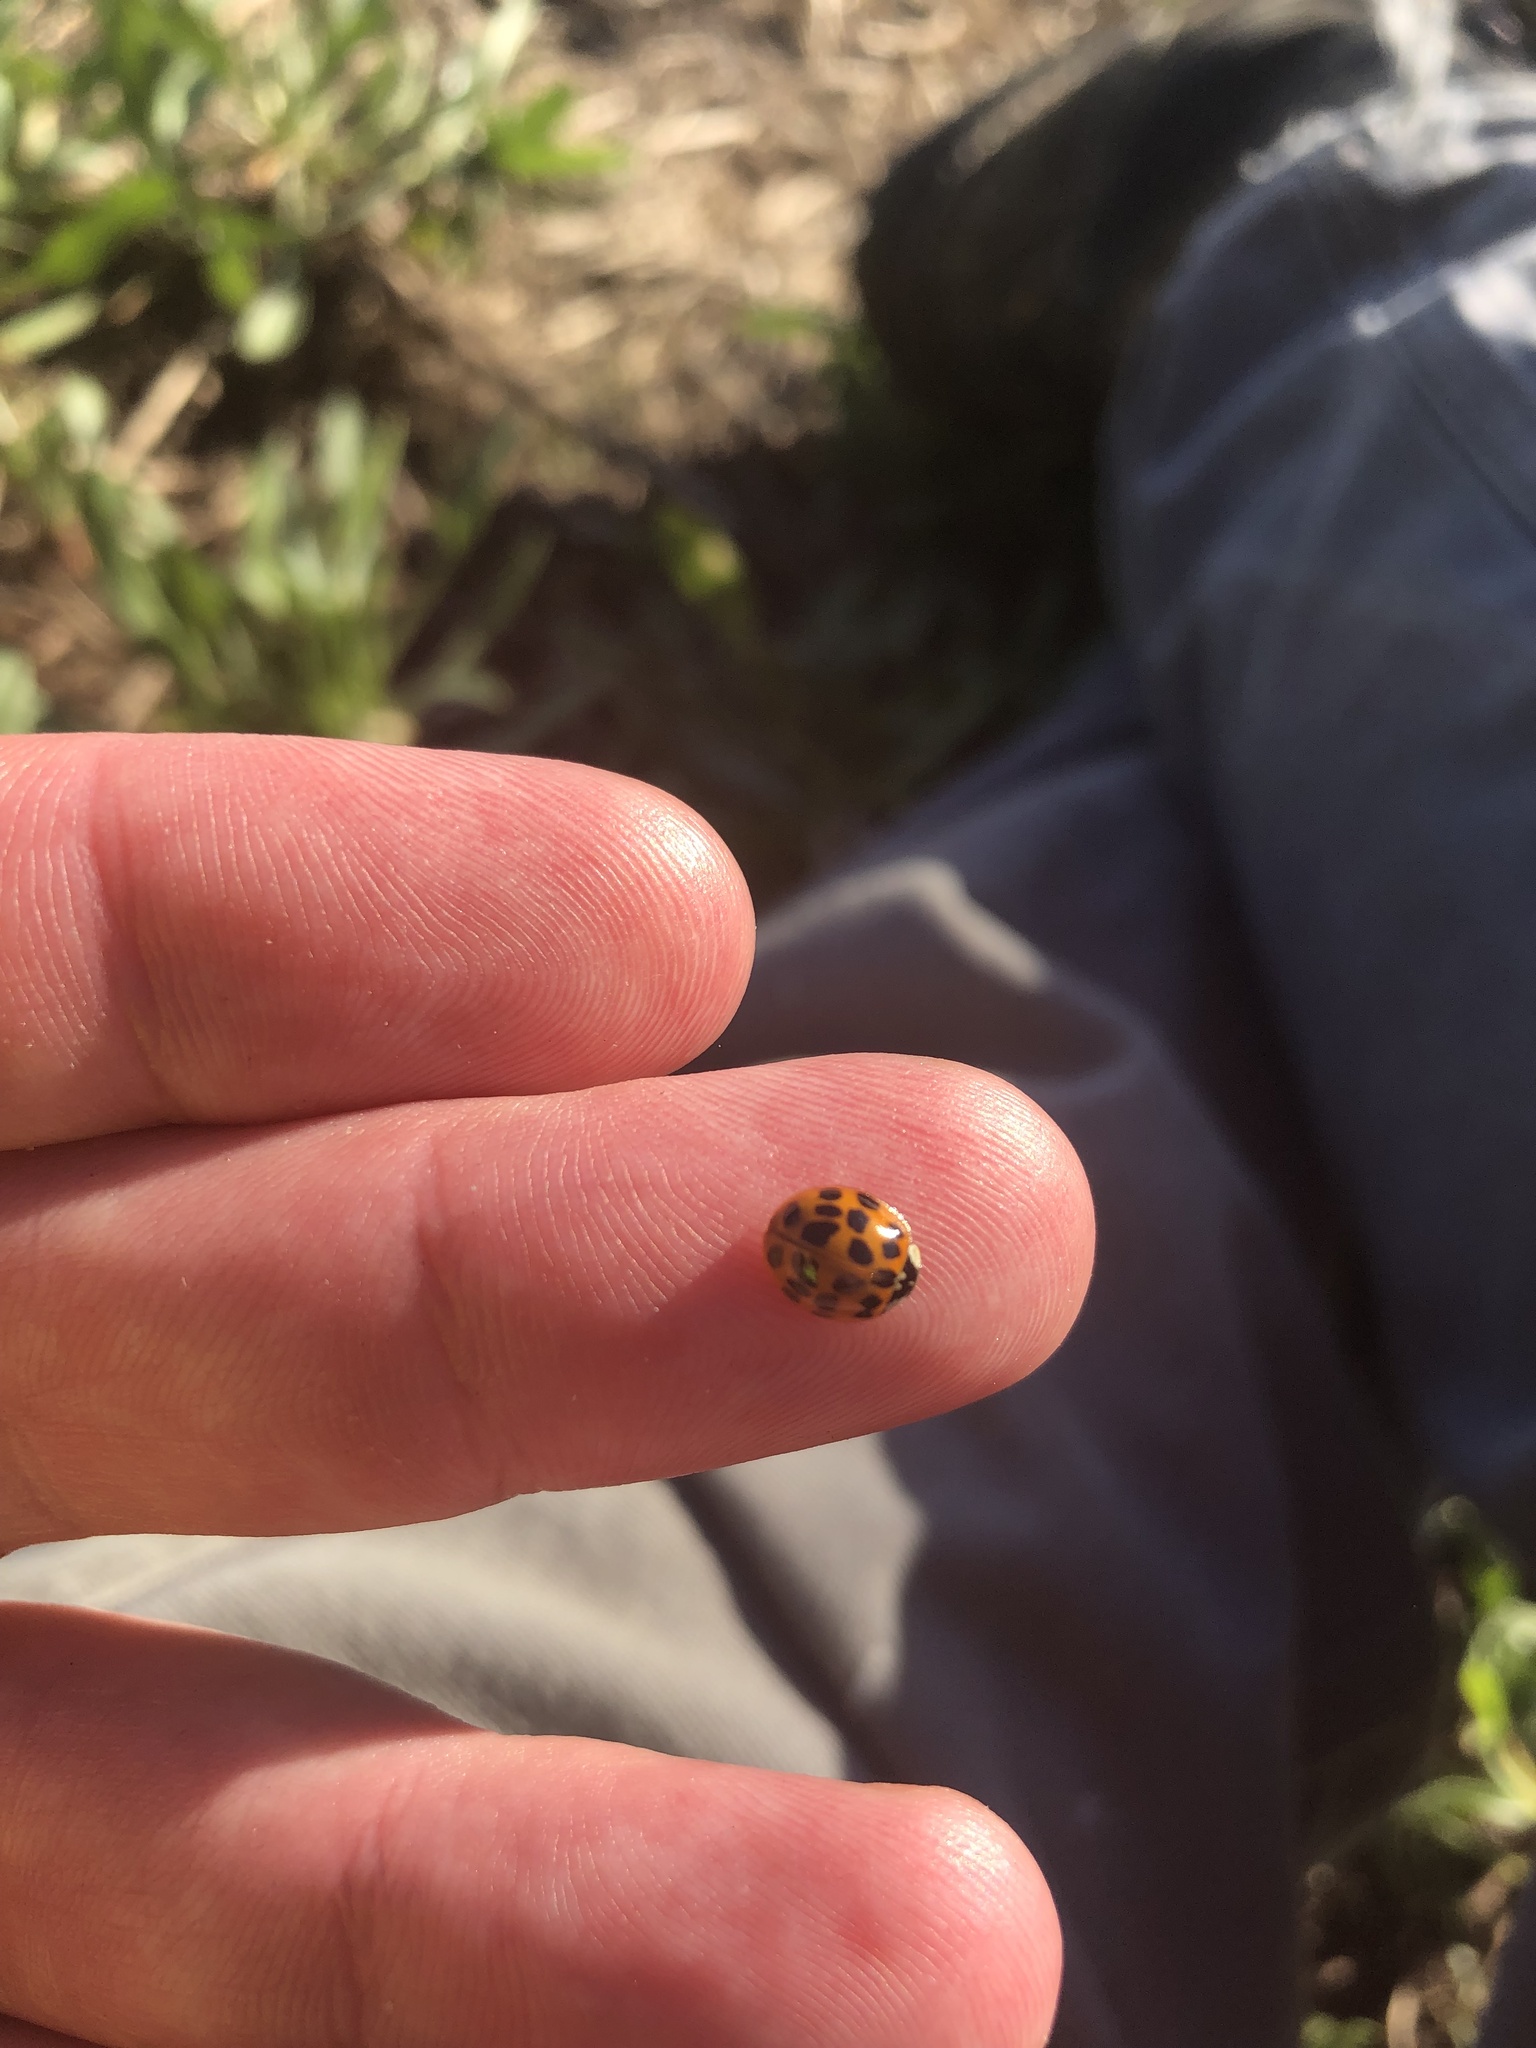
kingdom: Animalia
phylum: Arthropoda
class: Insecta
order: Coleoptera
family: Coccinellidae
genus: Harmonia
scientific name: Harmonia axyridis
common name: Harlequin ladybird
